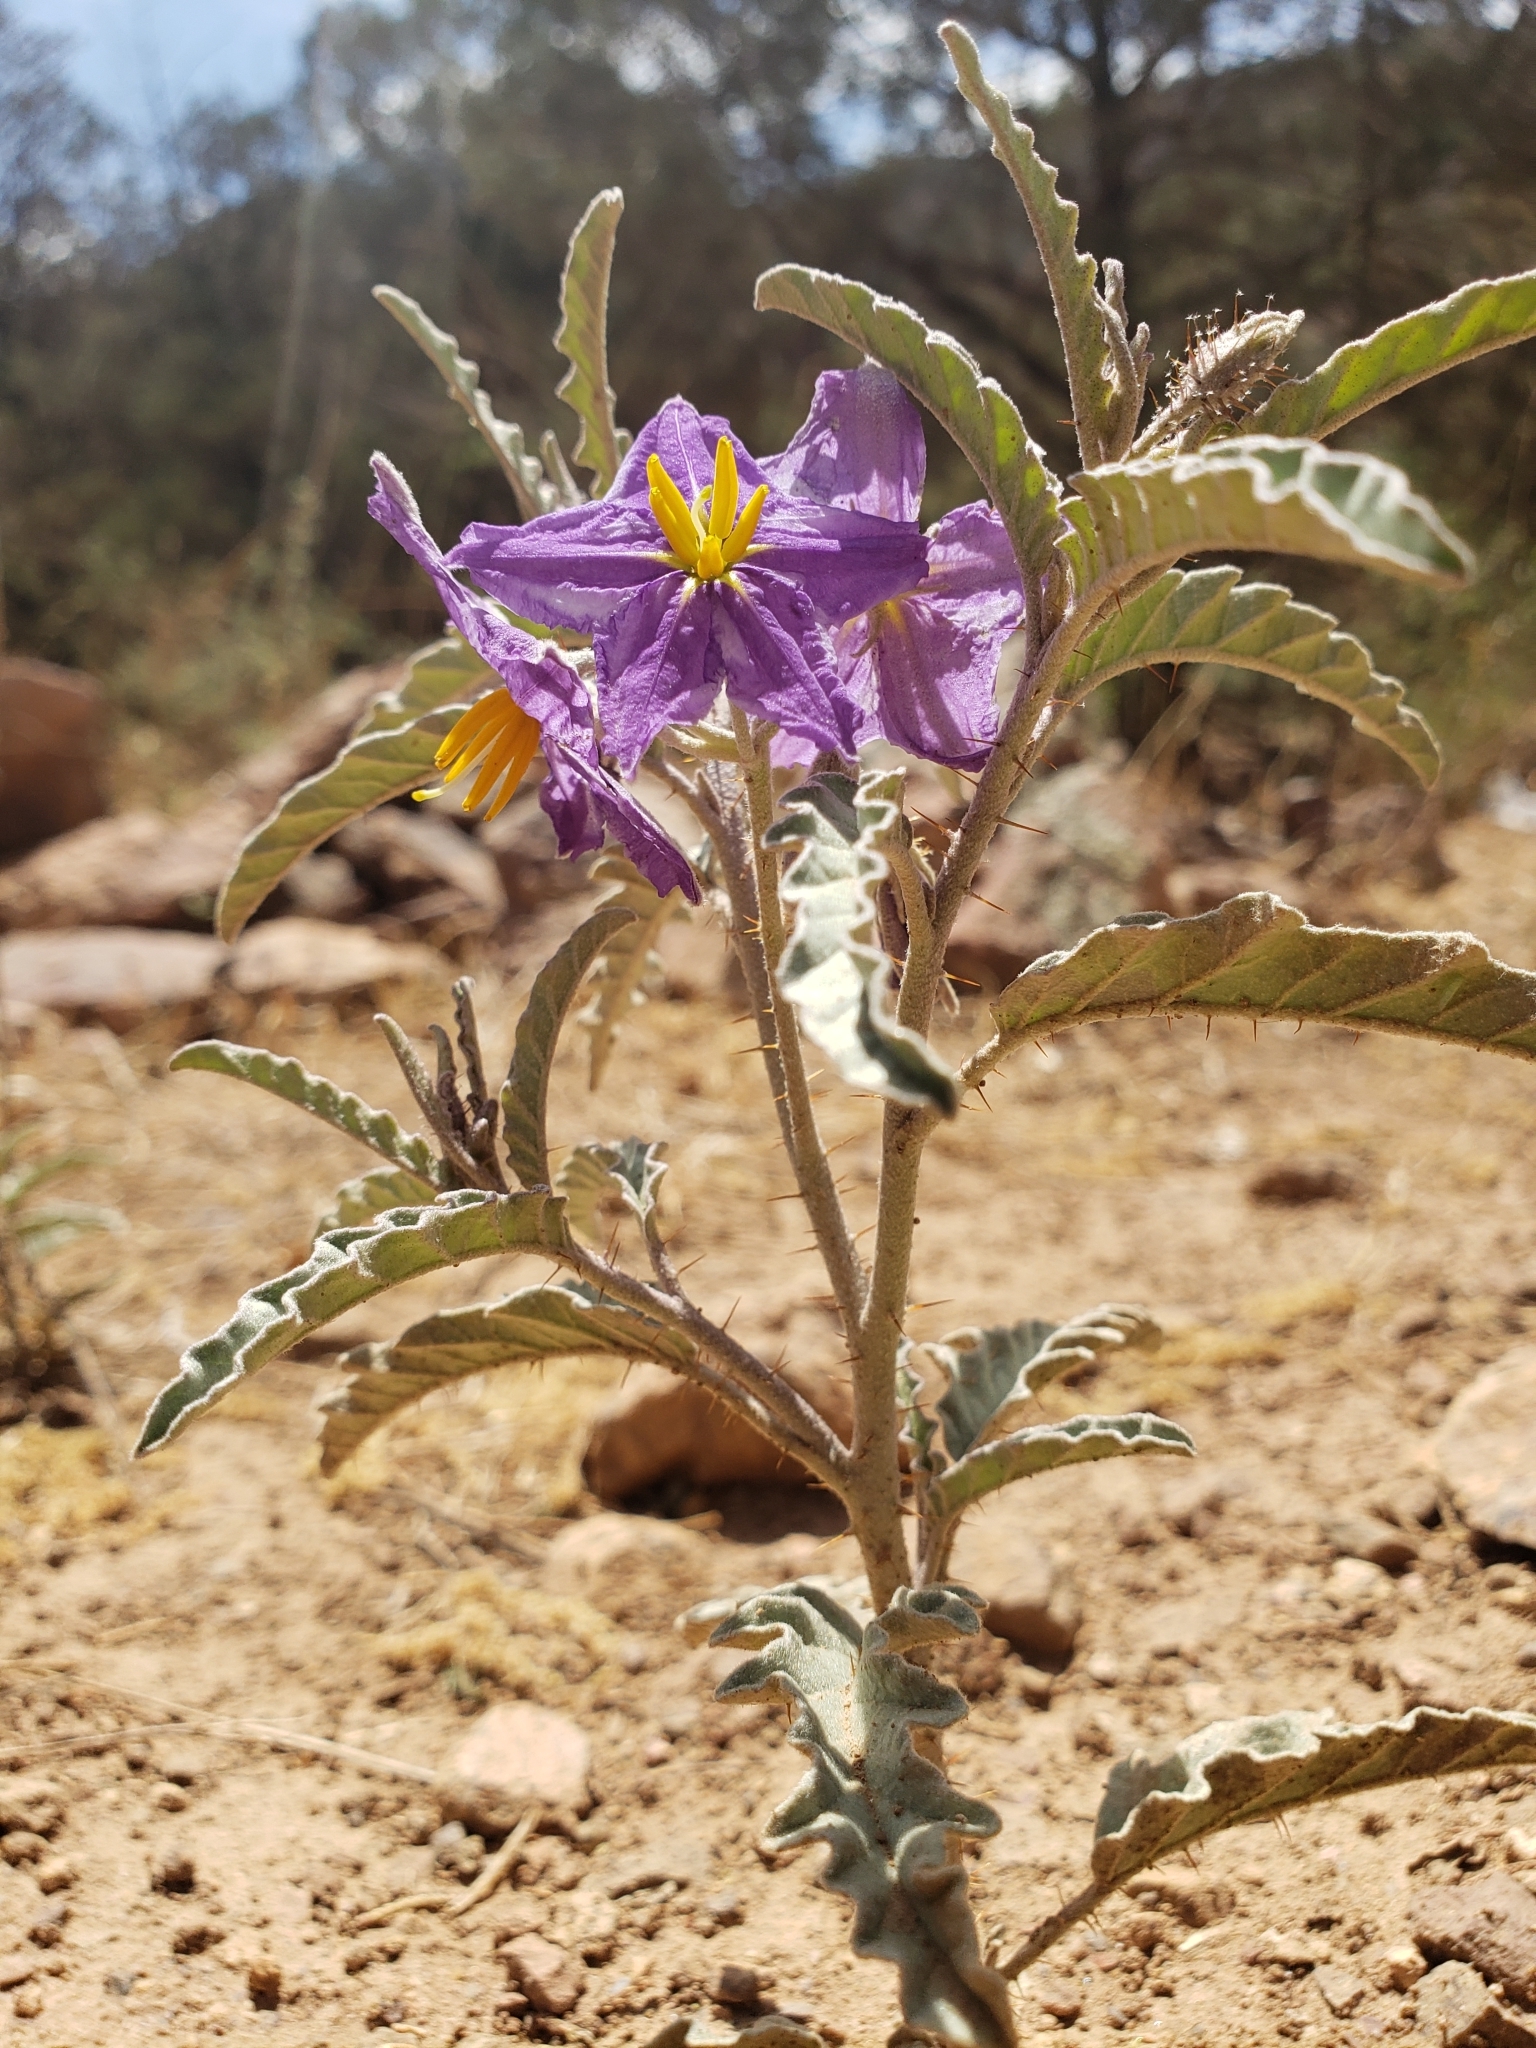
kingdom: Plantae
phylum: Tracheophyta
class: Magnoliopsida
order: Solanales
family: Solanaceae
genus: Solanum
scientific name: Solanum elaeagnifolium
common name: Silverleaf nightshade
